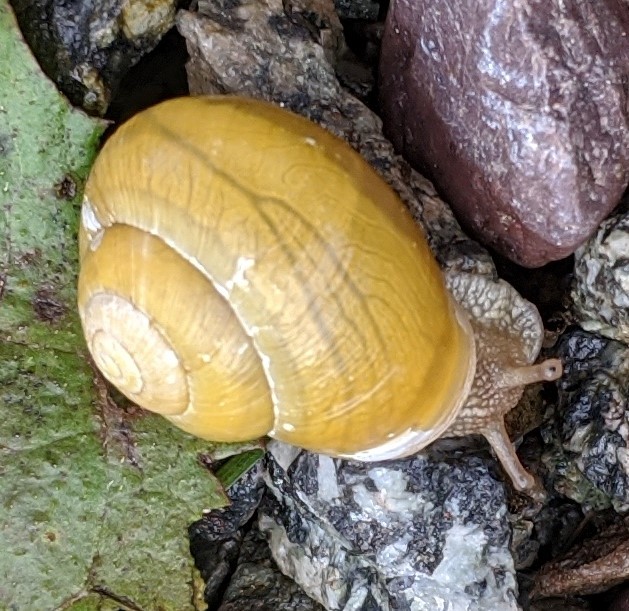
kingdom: Animalia
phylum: Mollusca
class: Gastropoda
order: Stylommatophora
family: Helicidae
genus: Cepaea
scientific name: Cepaea hortensis
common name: White-lip gardensnail
